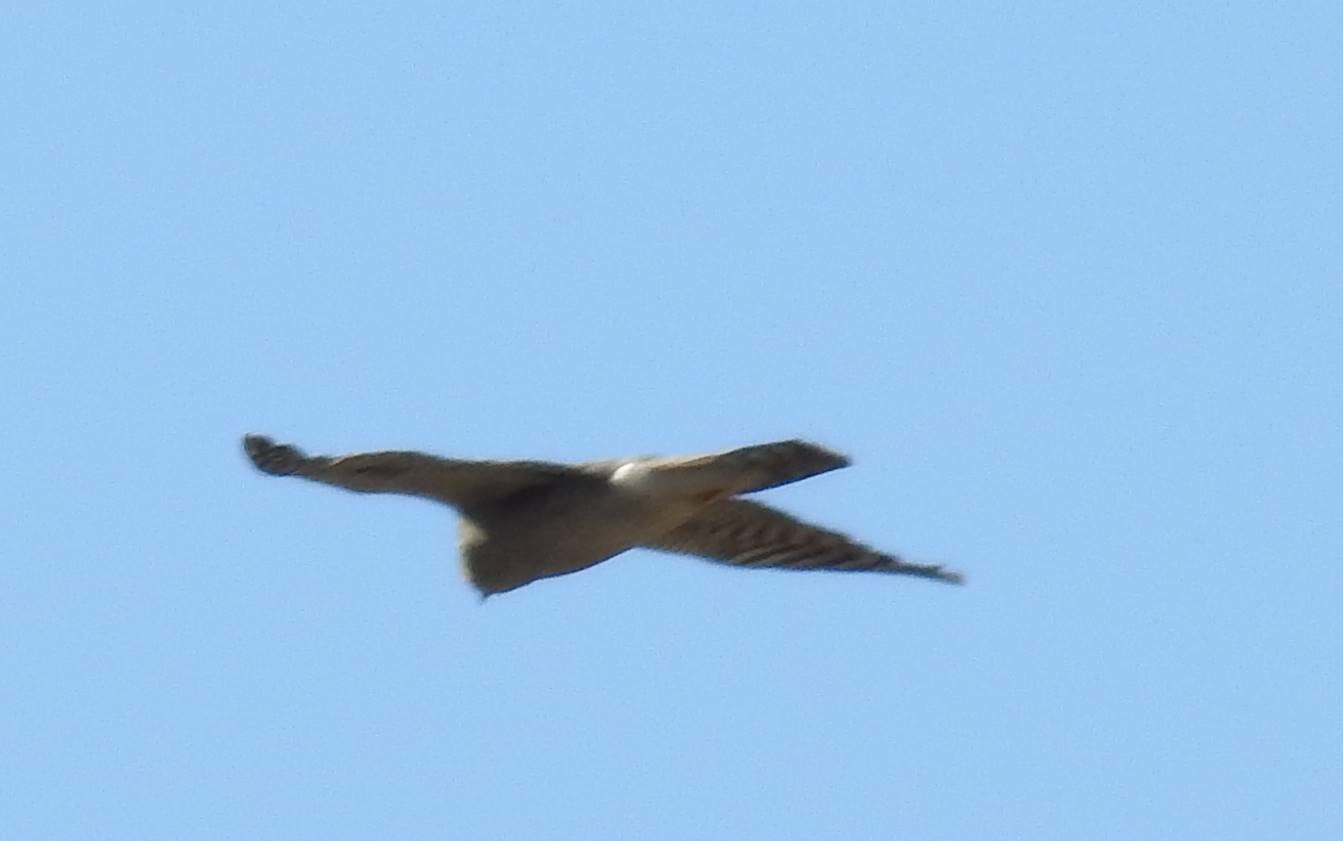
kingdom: Animalia
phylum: Chordata
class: Aves
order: Accipitriformes
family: Accipitridae
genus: Accipiter
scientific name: Accipiter nisus
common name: Eurasian sparrowhawk
